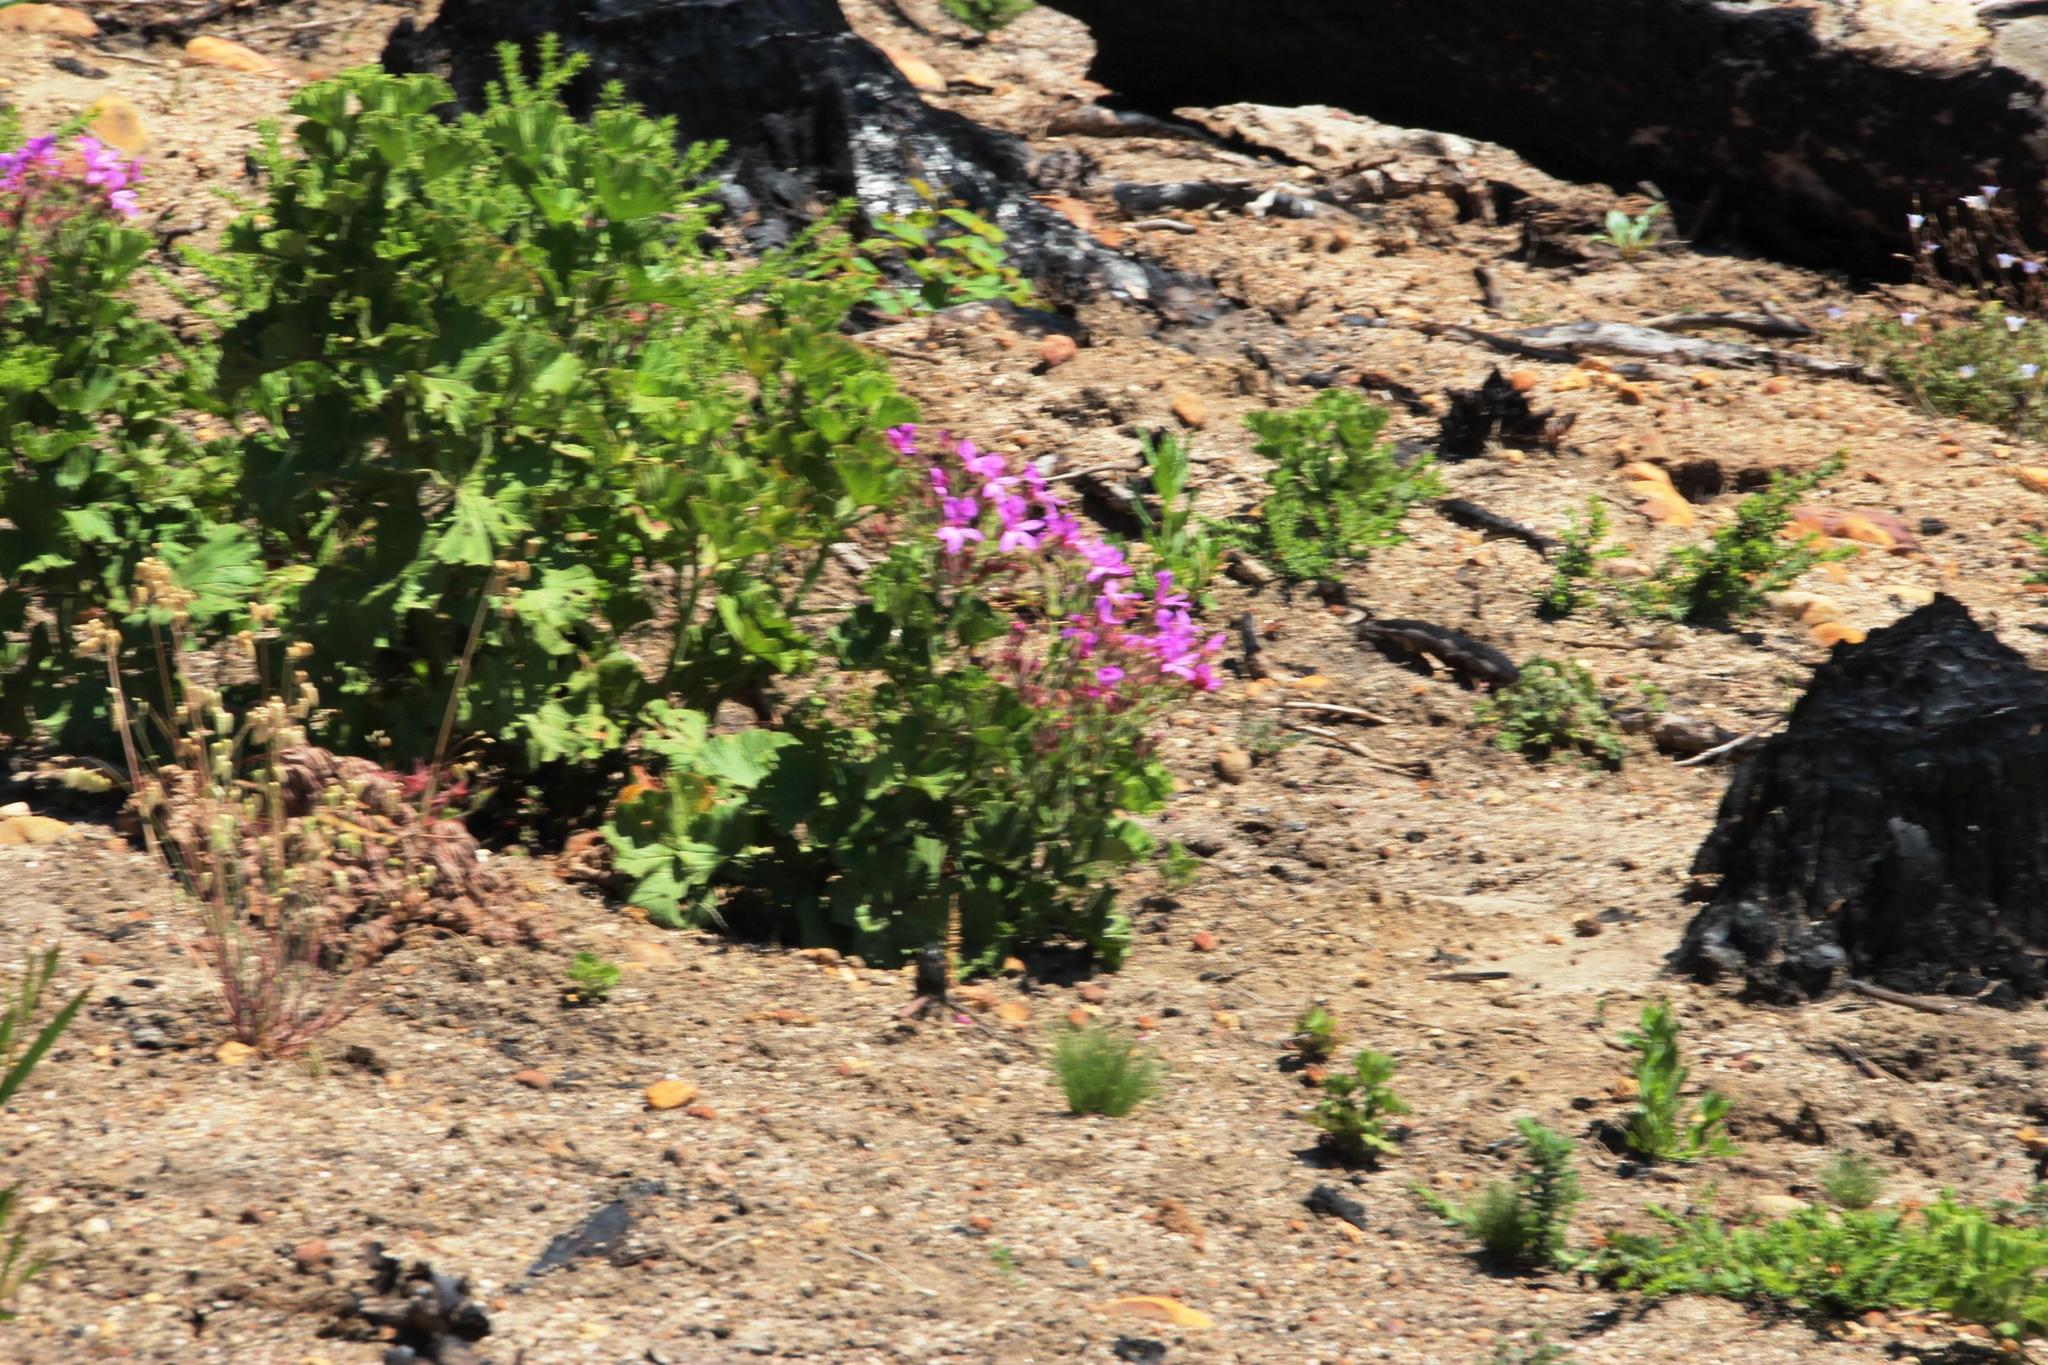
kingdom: Plantae
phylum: Tracheophyta
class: Magnoliopsida
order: Geraniales
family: Geraniaceae
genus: Pelargonium
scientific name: Pelargonium cucullatum
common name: Tree pelargonium
